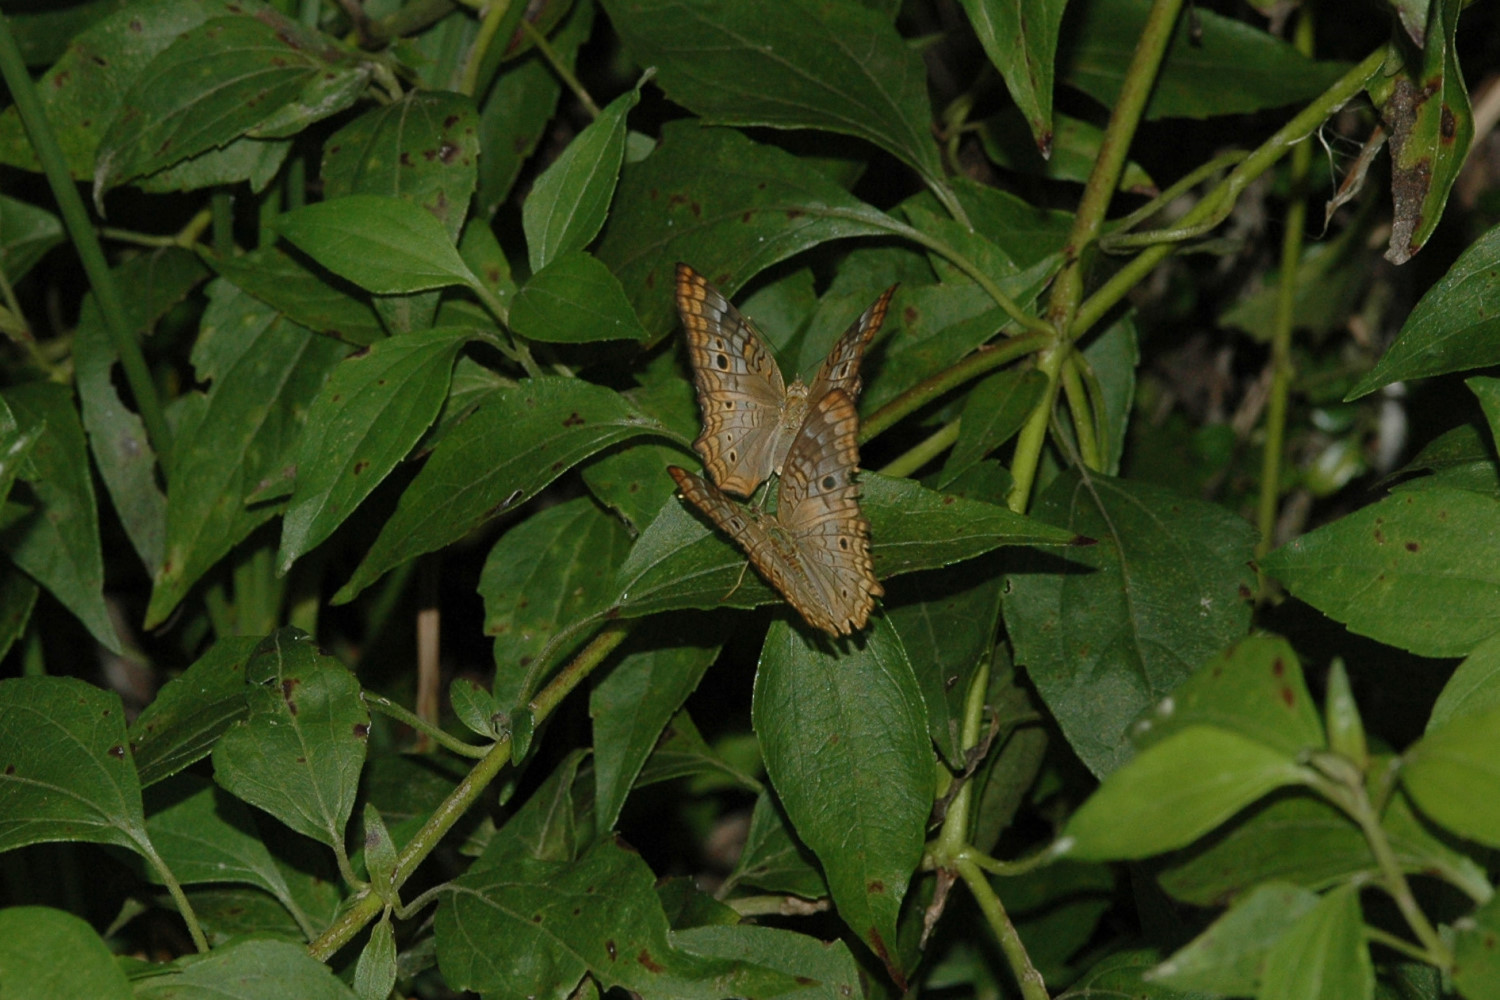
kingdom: Animalia
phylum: Arthropoda
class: Insecta
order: Lepidoptera
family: Nymphalidae
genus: Anartia
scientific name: Anartia jatrophae
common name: White peacock
